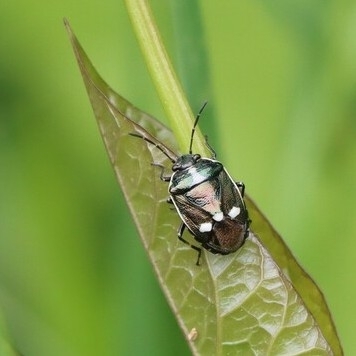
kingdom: Animalia
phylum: Arthropoda
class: Insecta
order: Hemiptera
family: Pentatomidae
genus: Eurydema
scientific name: Eurydema oleracea
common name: Cabbage bug
